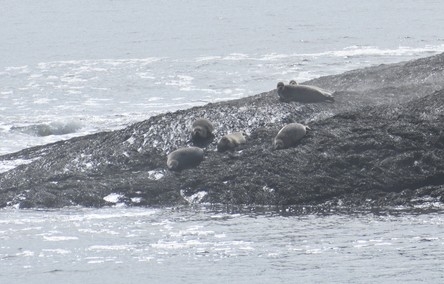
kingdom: Animalia
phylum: Chordata
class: Mammalia
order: Carnivora
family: Phocidae
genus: Phoca
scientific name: Phoca vitulina
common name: Harbor seal
